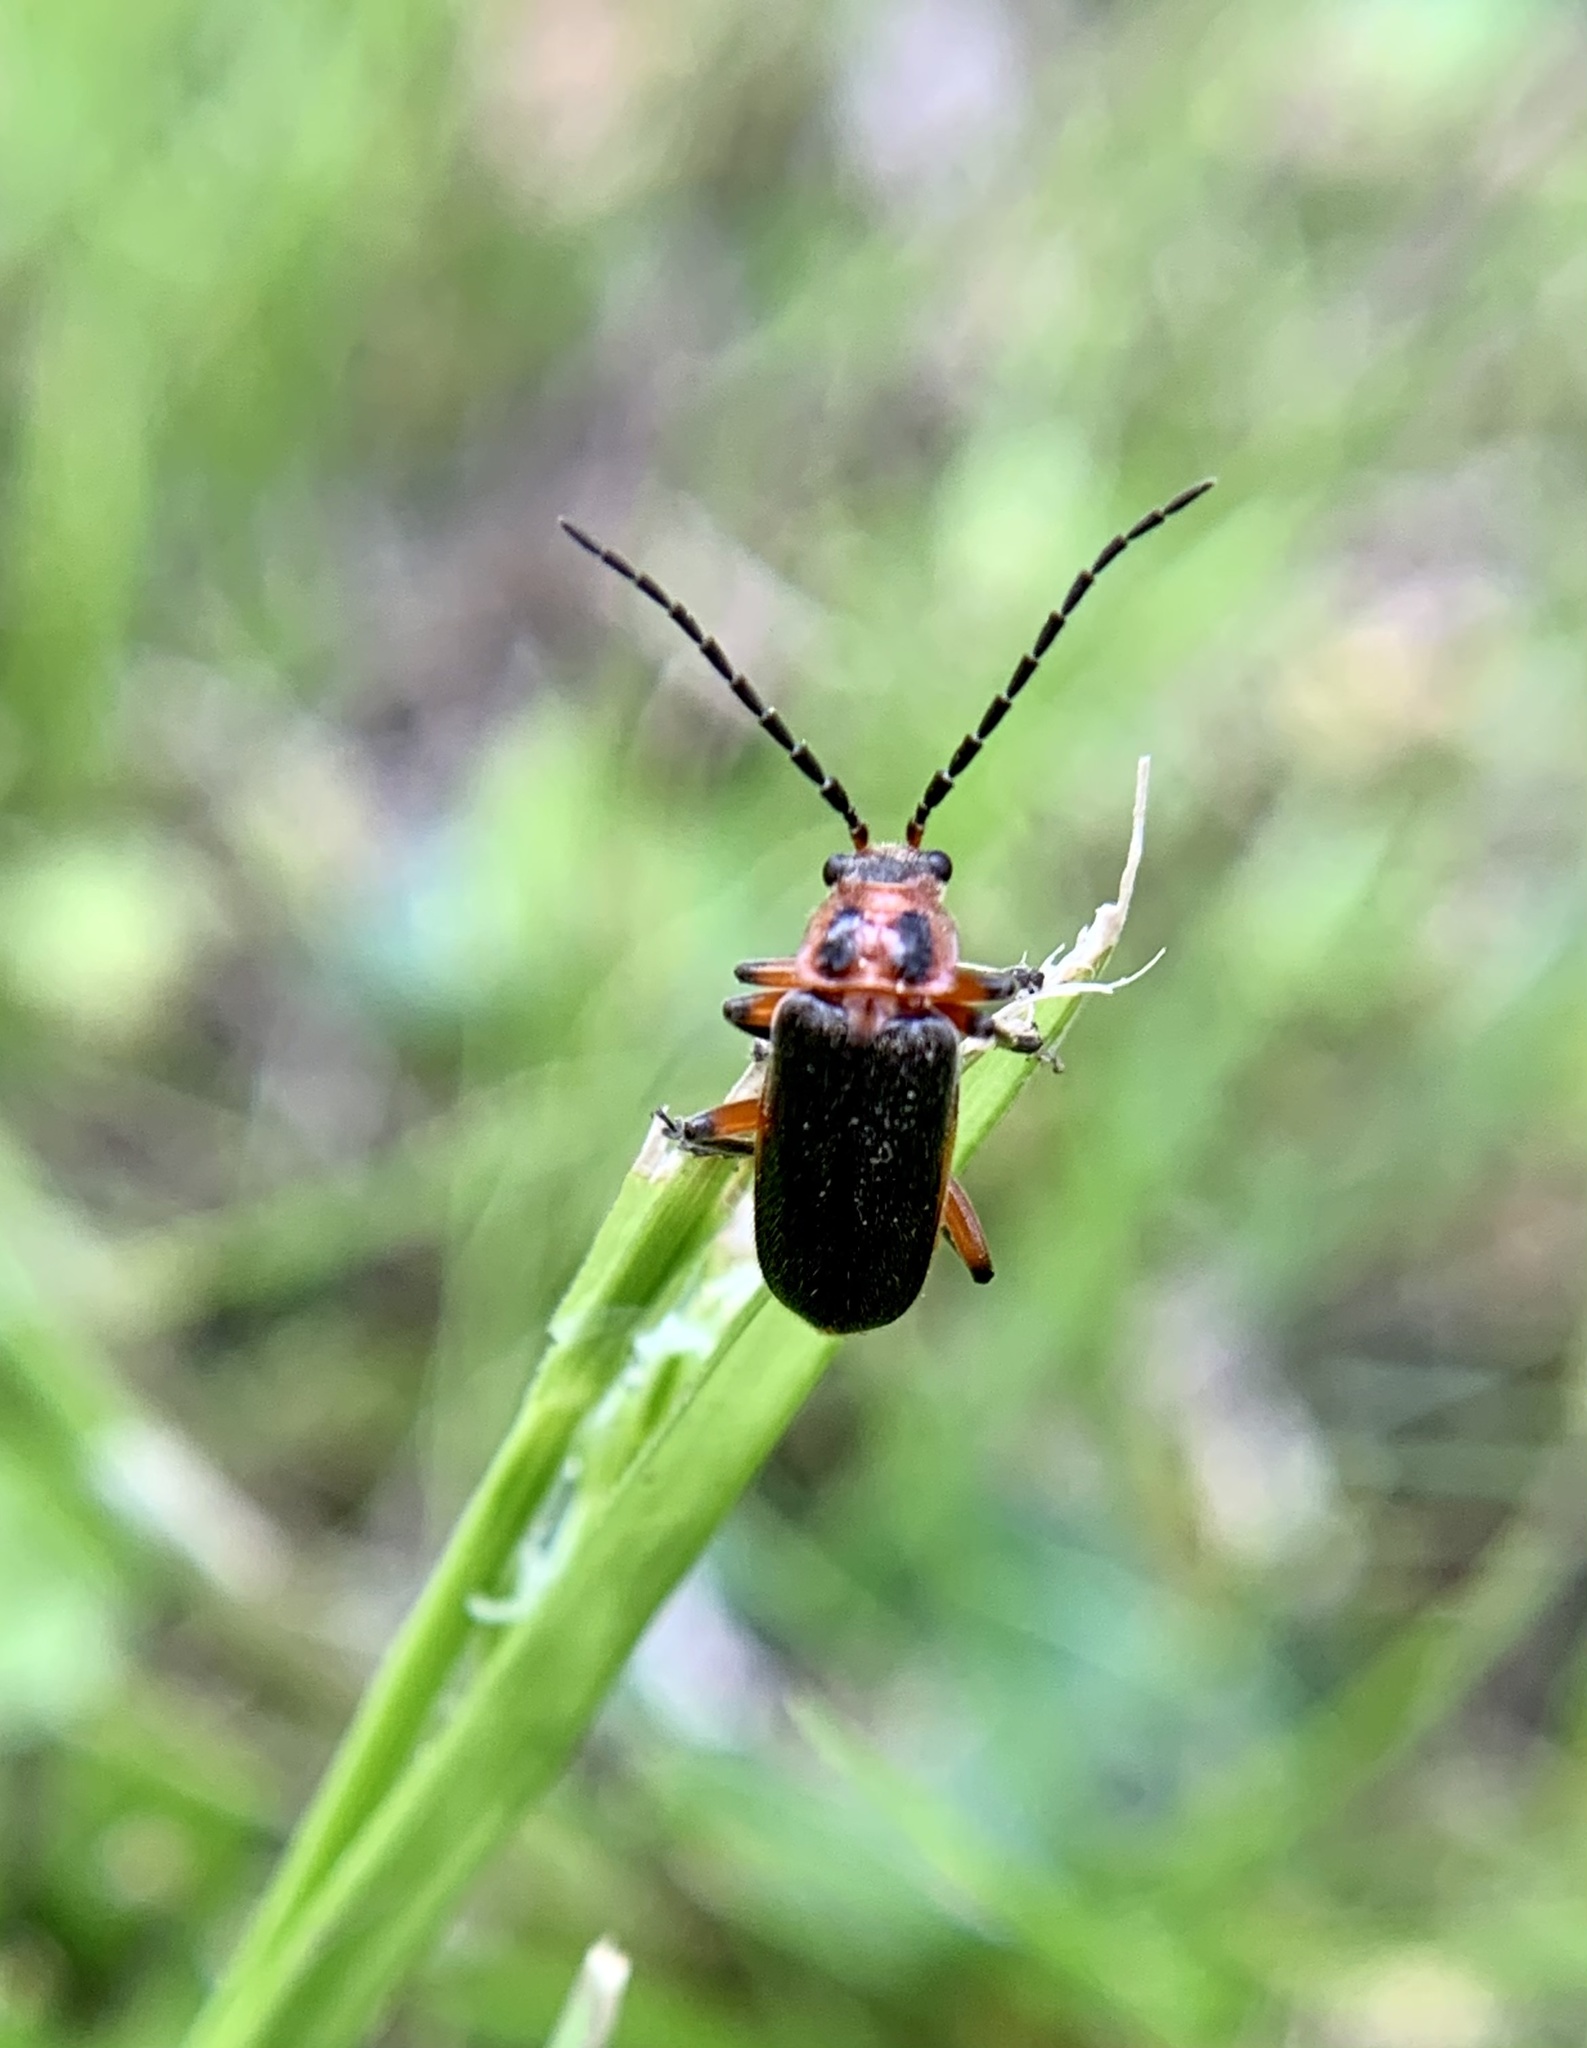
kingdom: Animalia
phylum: Arthropoda
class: Insecta
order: Coleoptera
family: Cantharidae
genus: Atalantycha
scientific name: Atalantycha bilineata
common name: Two-lined leatherwing
